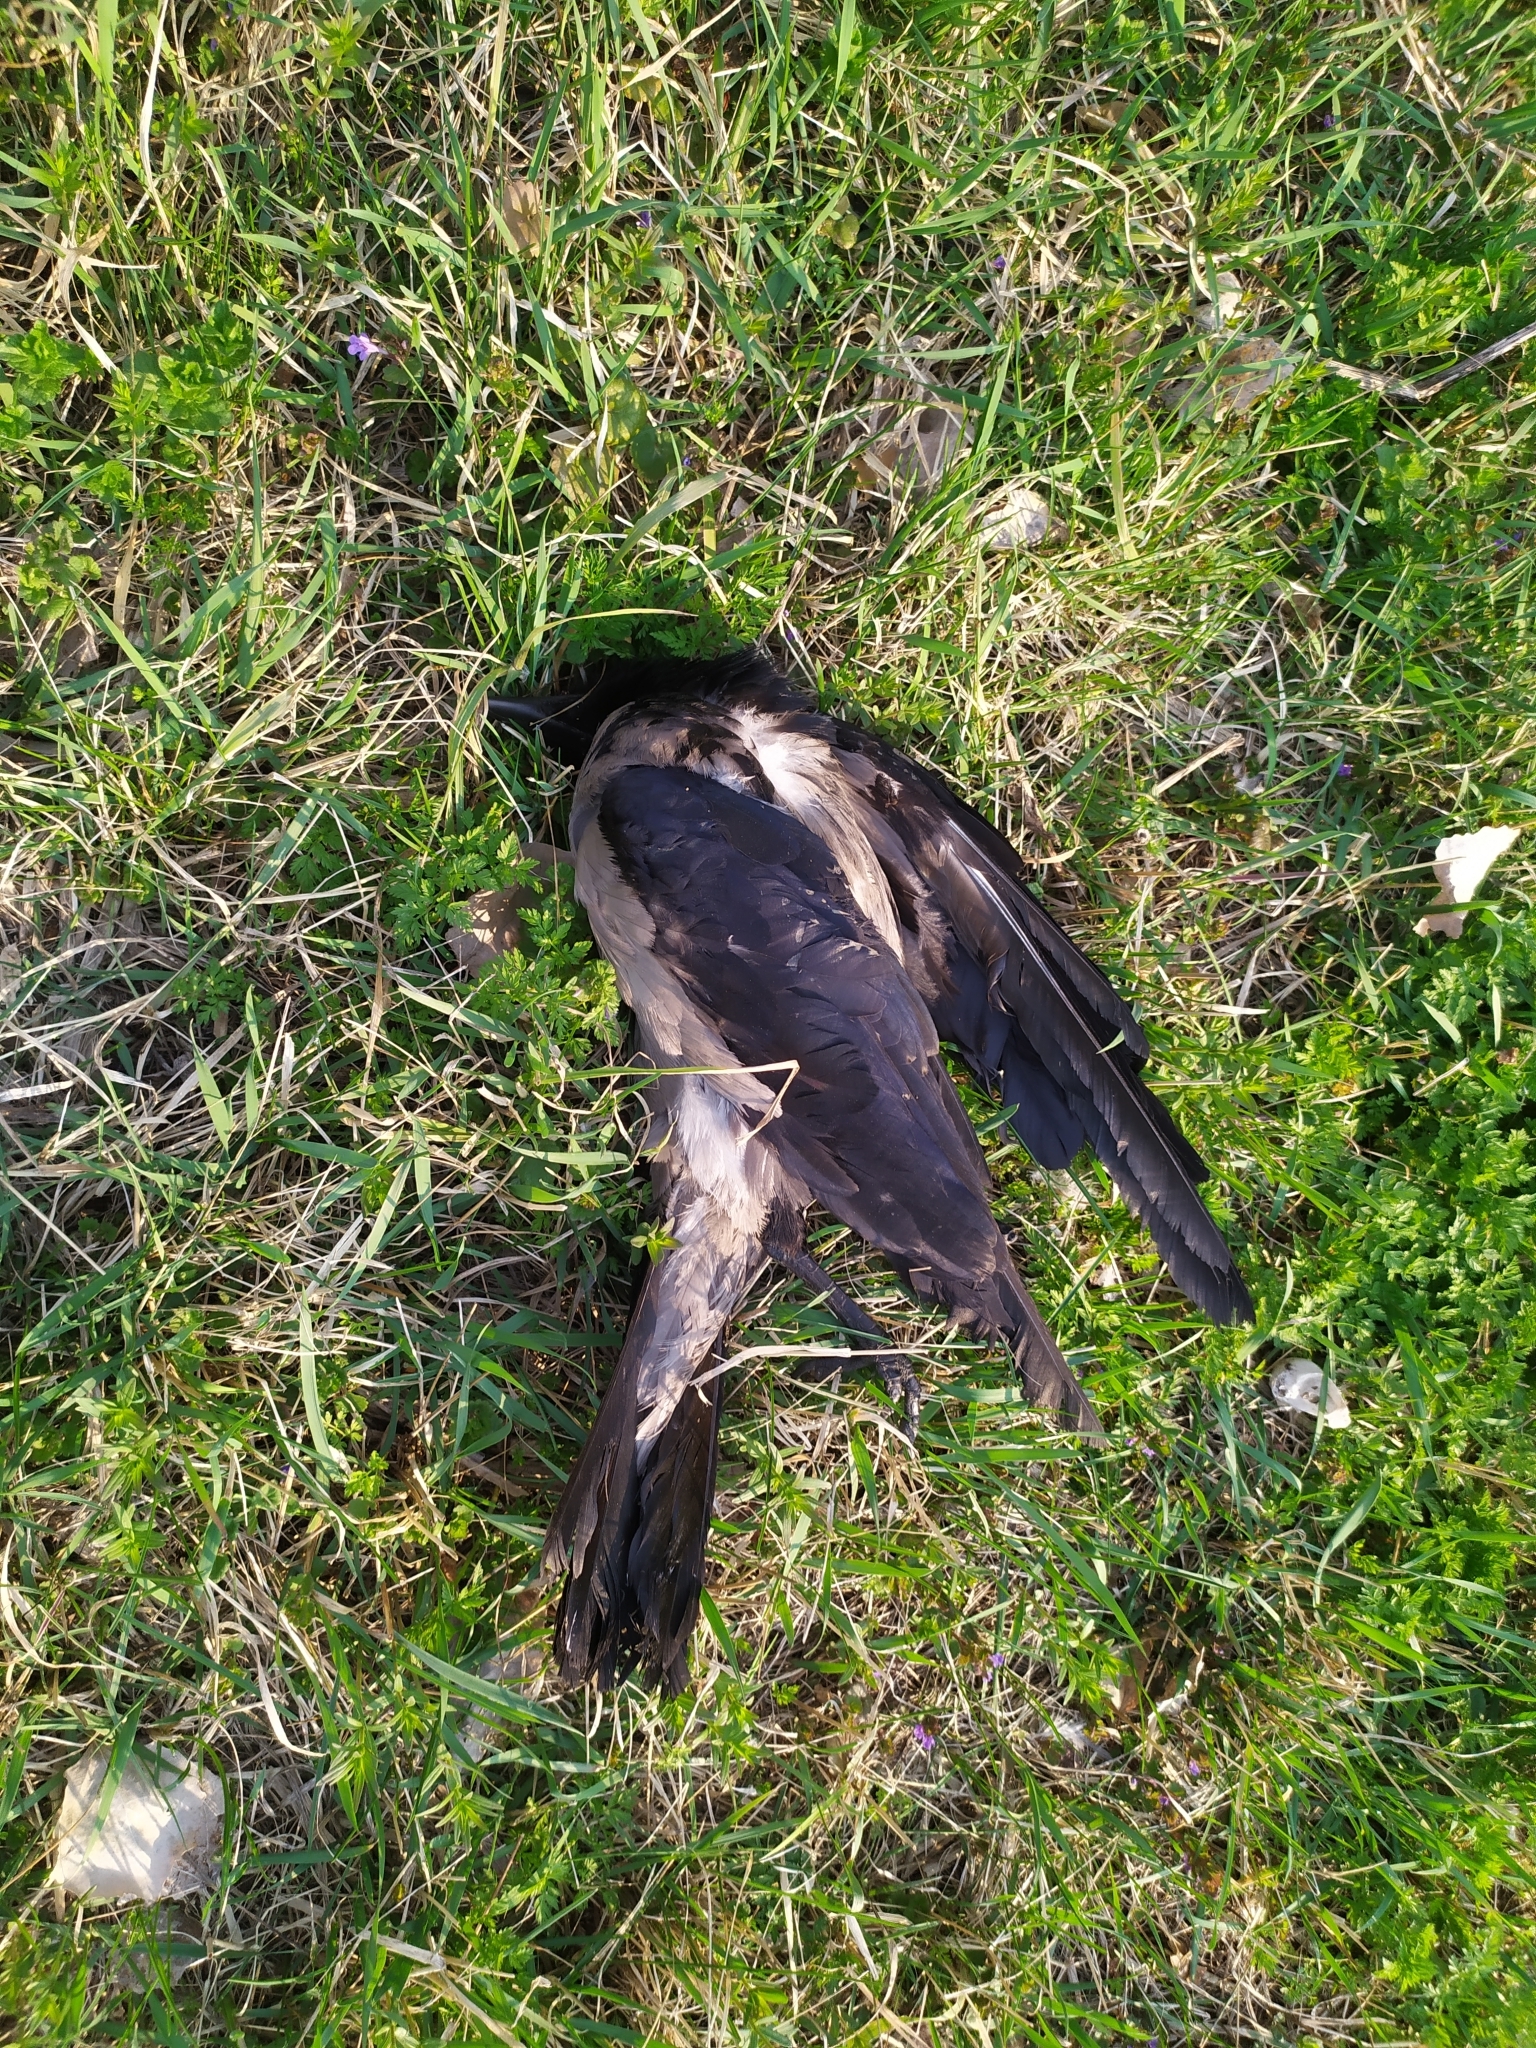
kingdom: Animalia
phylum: Chordata
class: Aves
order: Passeriformes
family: Corvidae
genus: Corvus
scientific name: Corvus cornix
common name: Hooded crow
